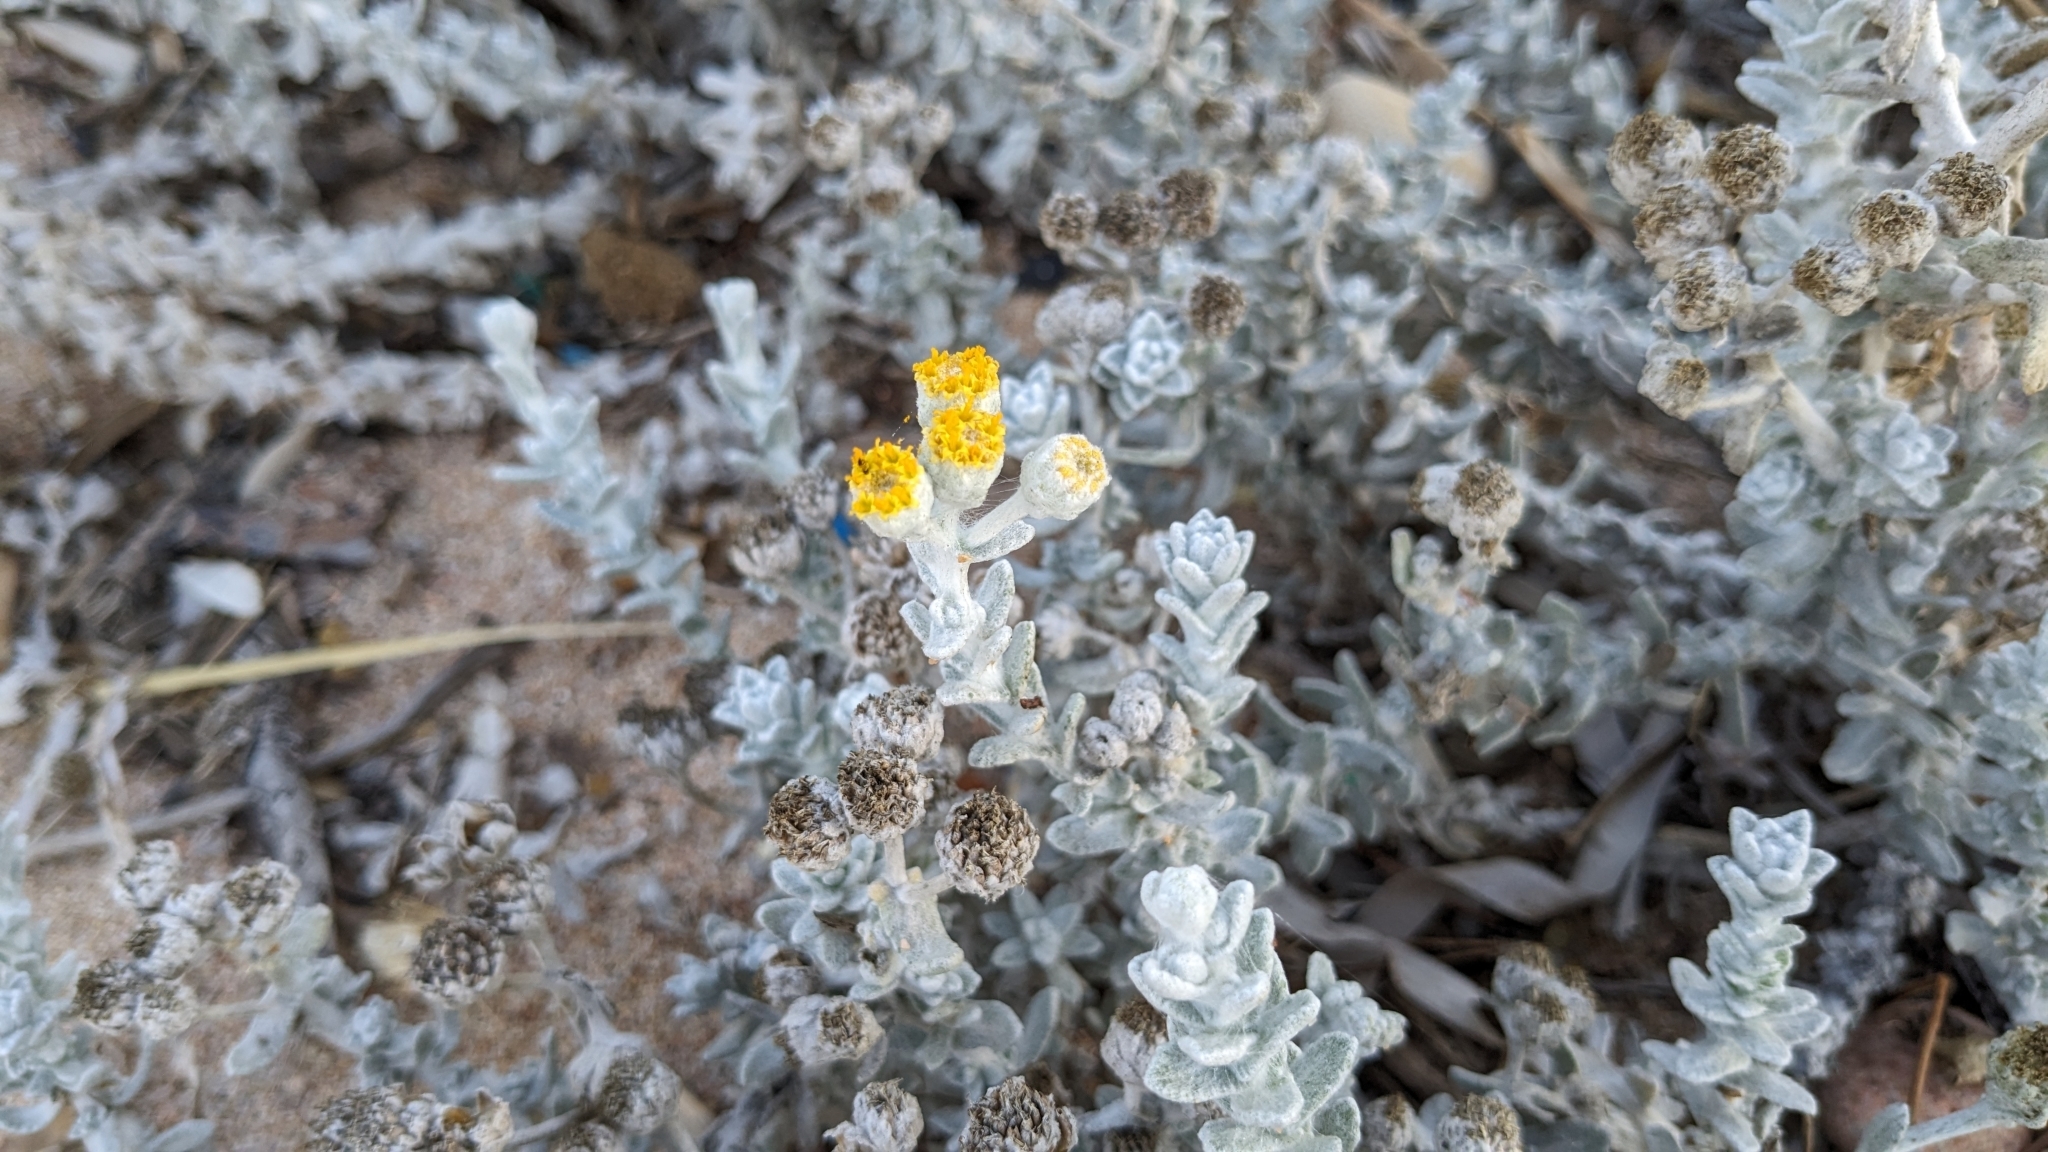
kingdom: Plantae
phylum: Tracheophyta
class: Magnoliopsida
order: Asterales
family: Asteraceae
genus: Achillea
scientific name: Achillea maritima
